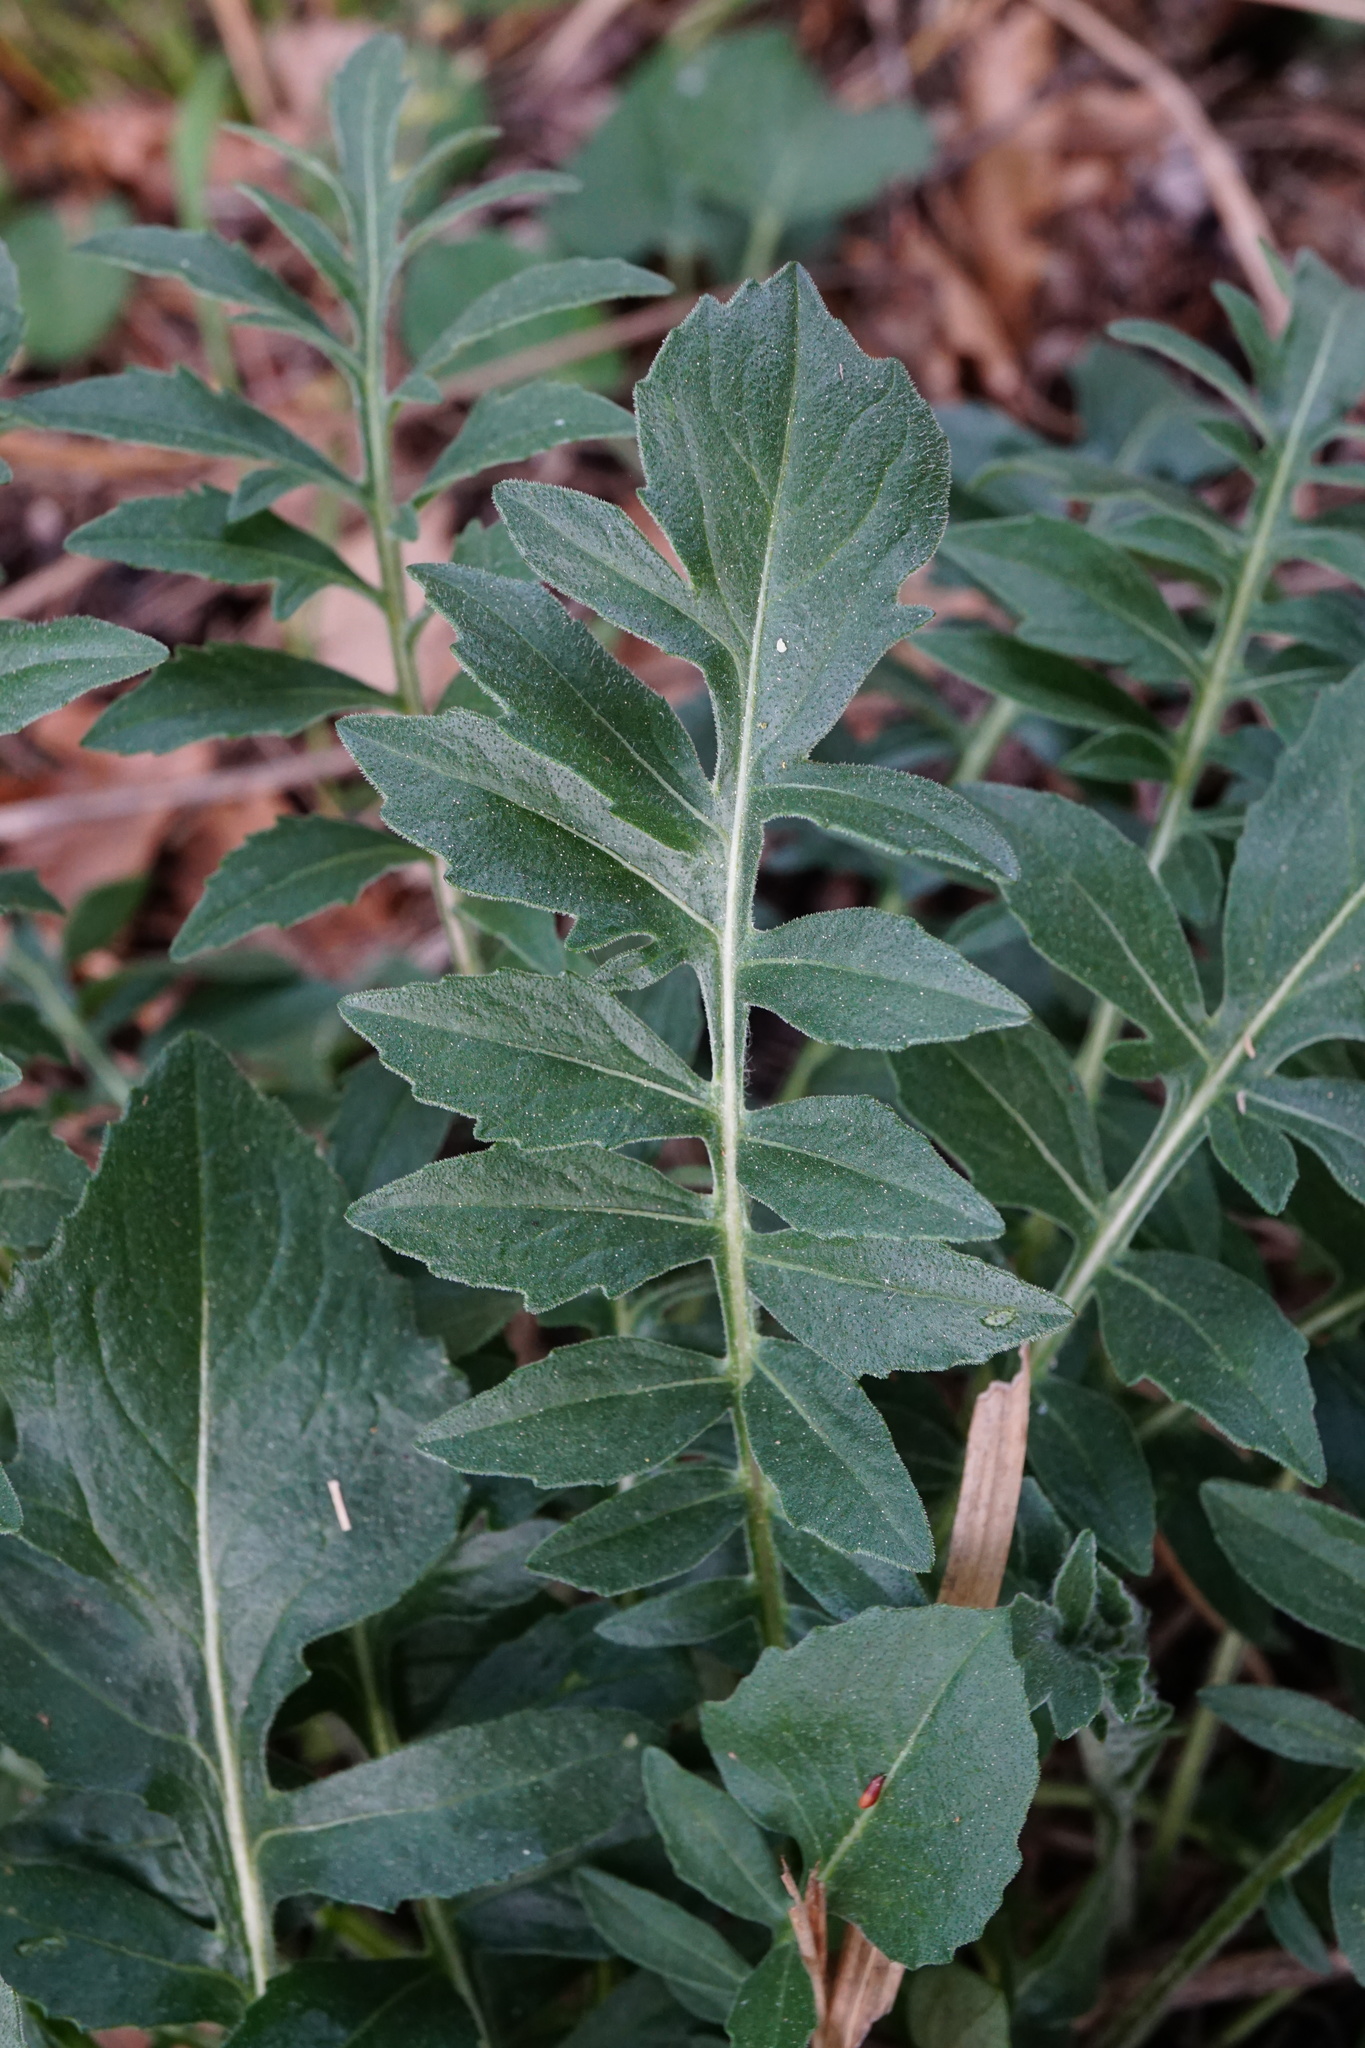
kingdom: Plantae
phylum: Tracheophyta
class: Magnoliopsida
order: Asterales
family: Asteraceae
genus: Centaurea
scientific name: Centaurea scabiosa
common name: Greater knapweed
